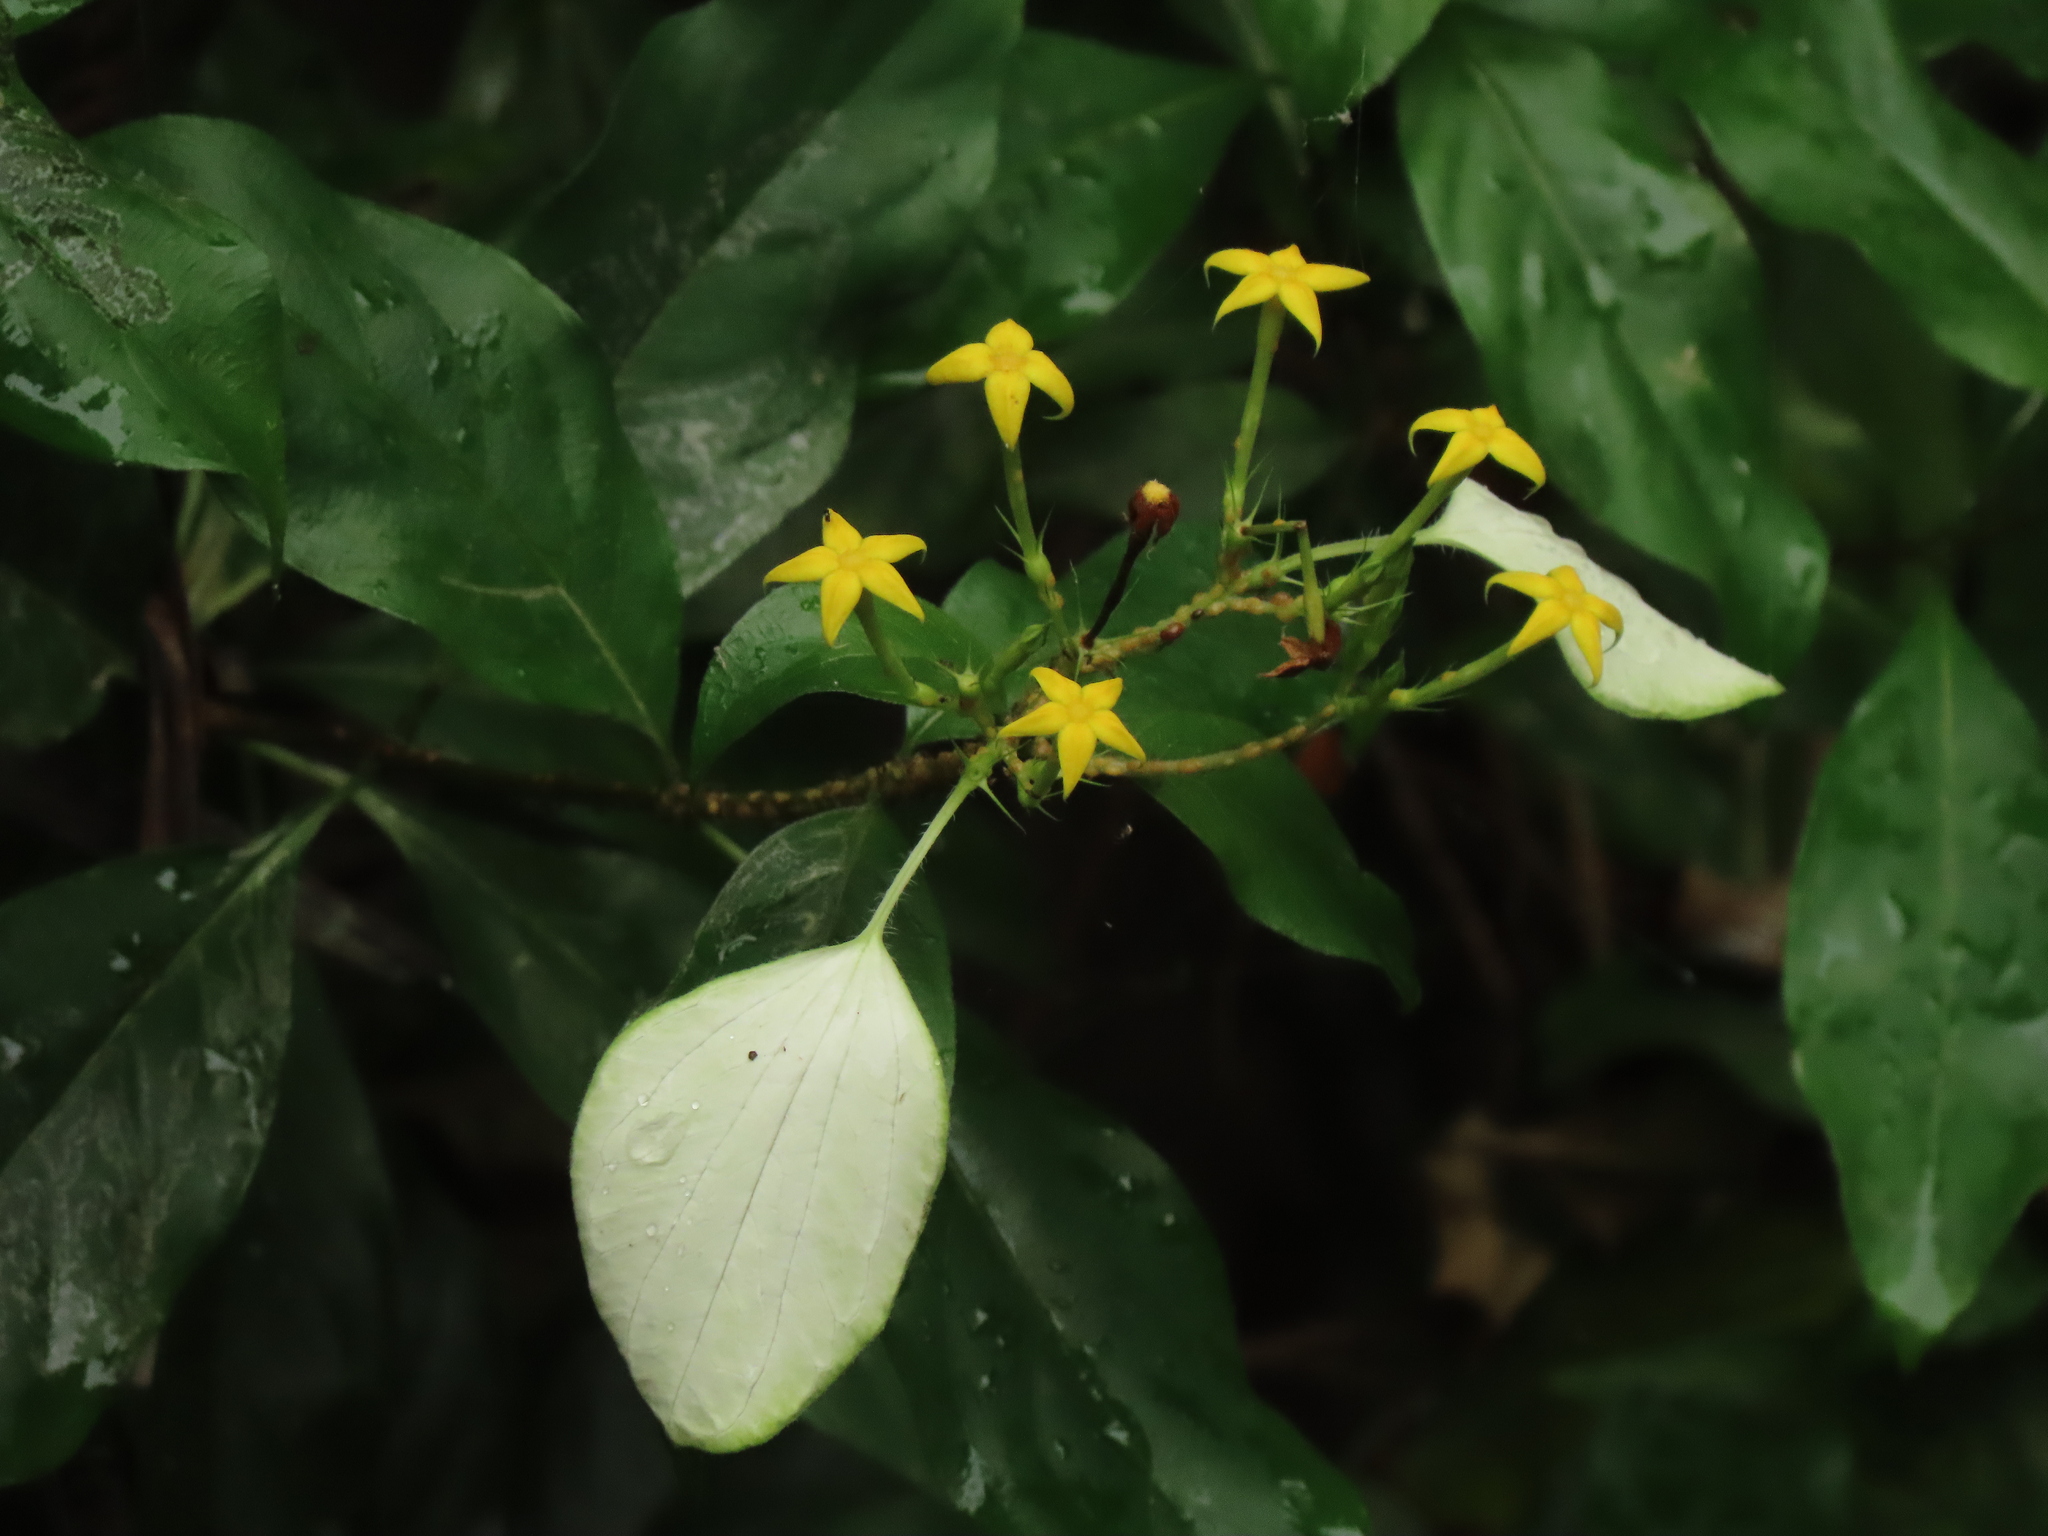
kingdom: Plantae
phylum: Tracheophyta
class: Magnoliopsida
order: Gentianales
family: Rubiaceae
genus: Mussaenda
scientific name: Mussaenda formosana
